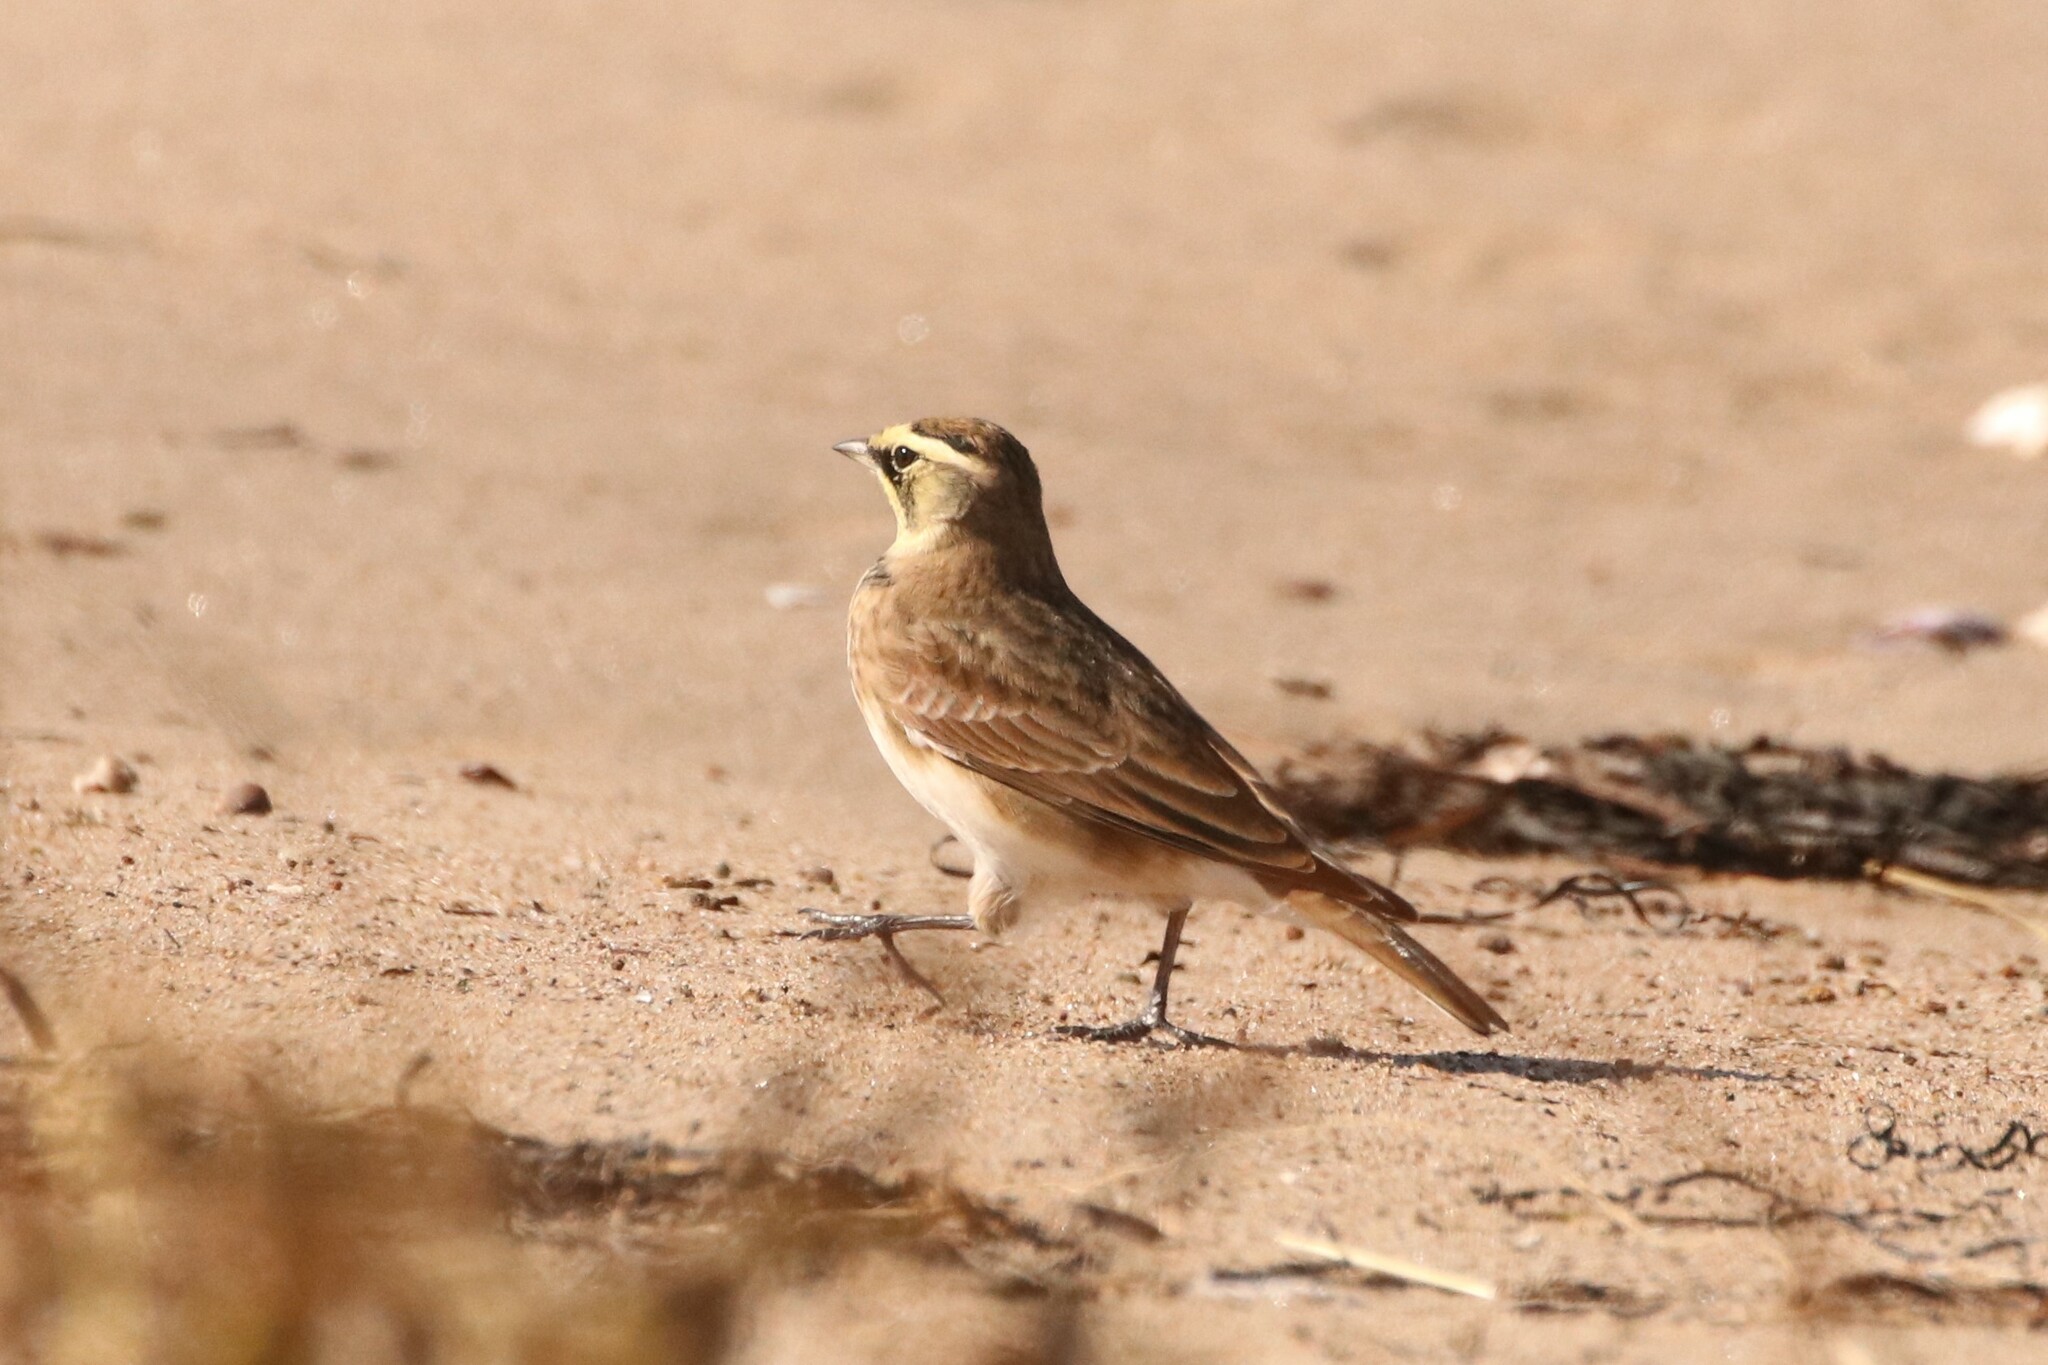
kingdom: Animalia
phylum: Chordata
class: Aves
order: Passeriformes
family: Alaudidae
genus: Eremophila
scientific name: Eremophila alpestris
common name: Horned lark
